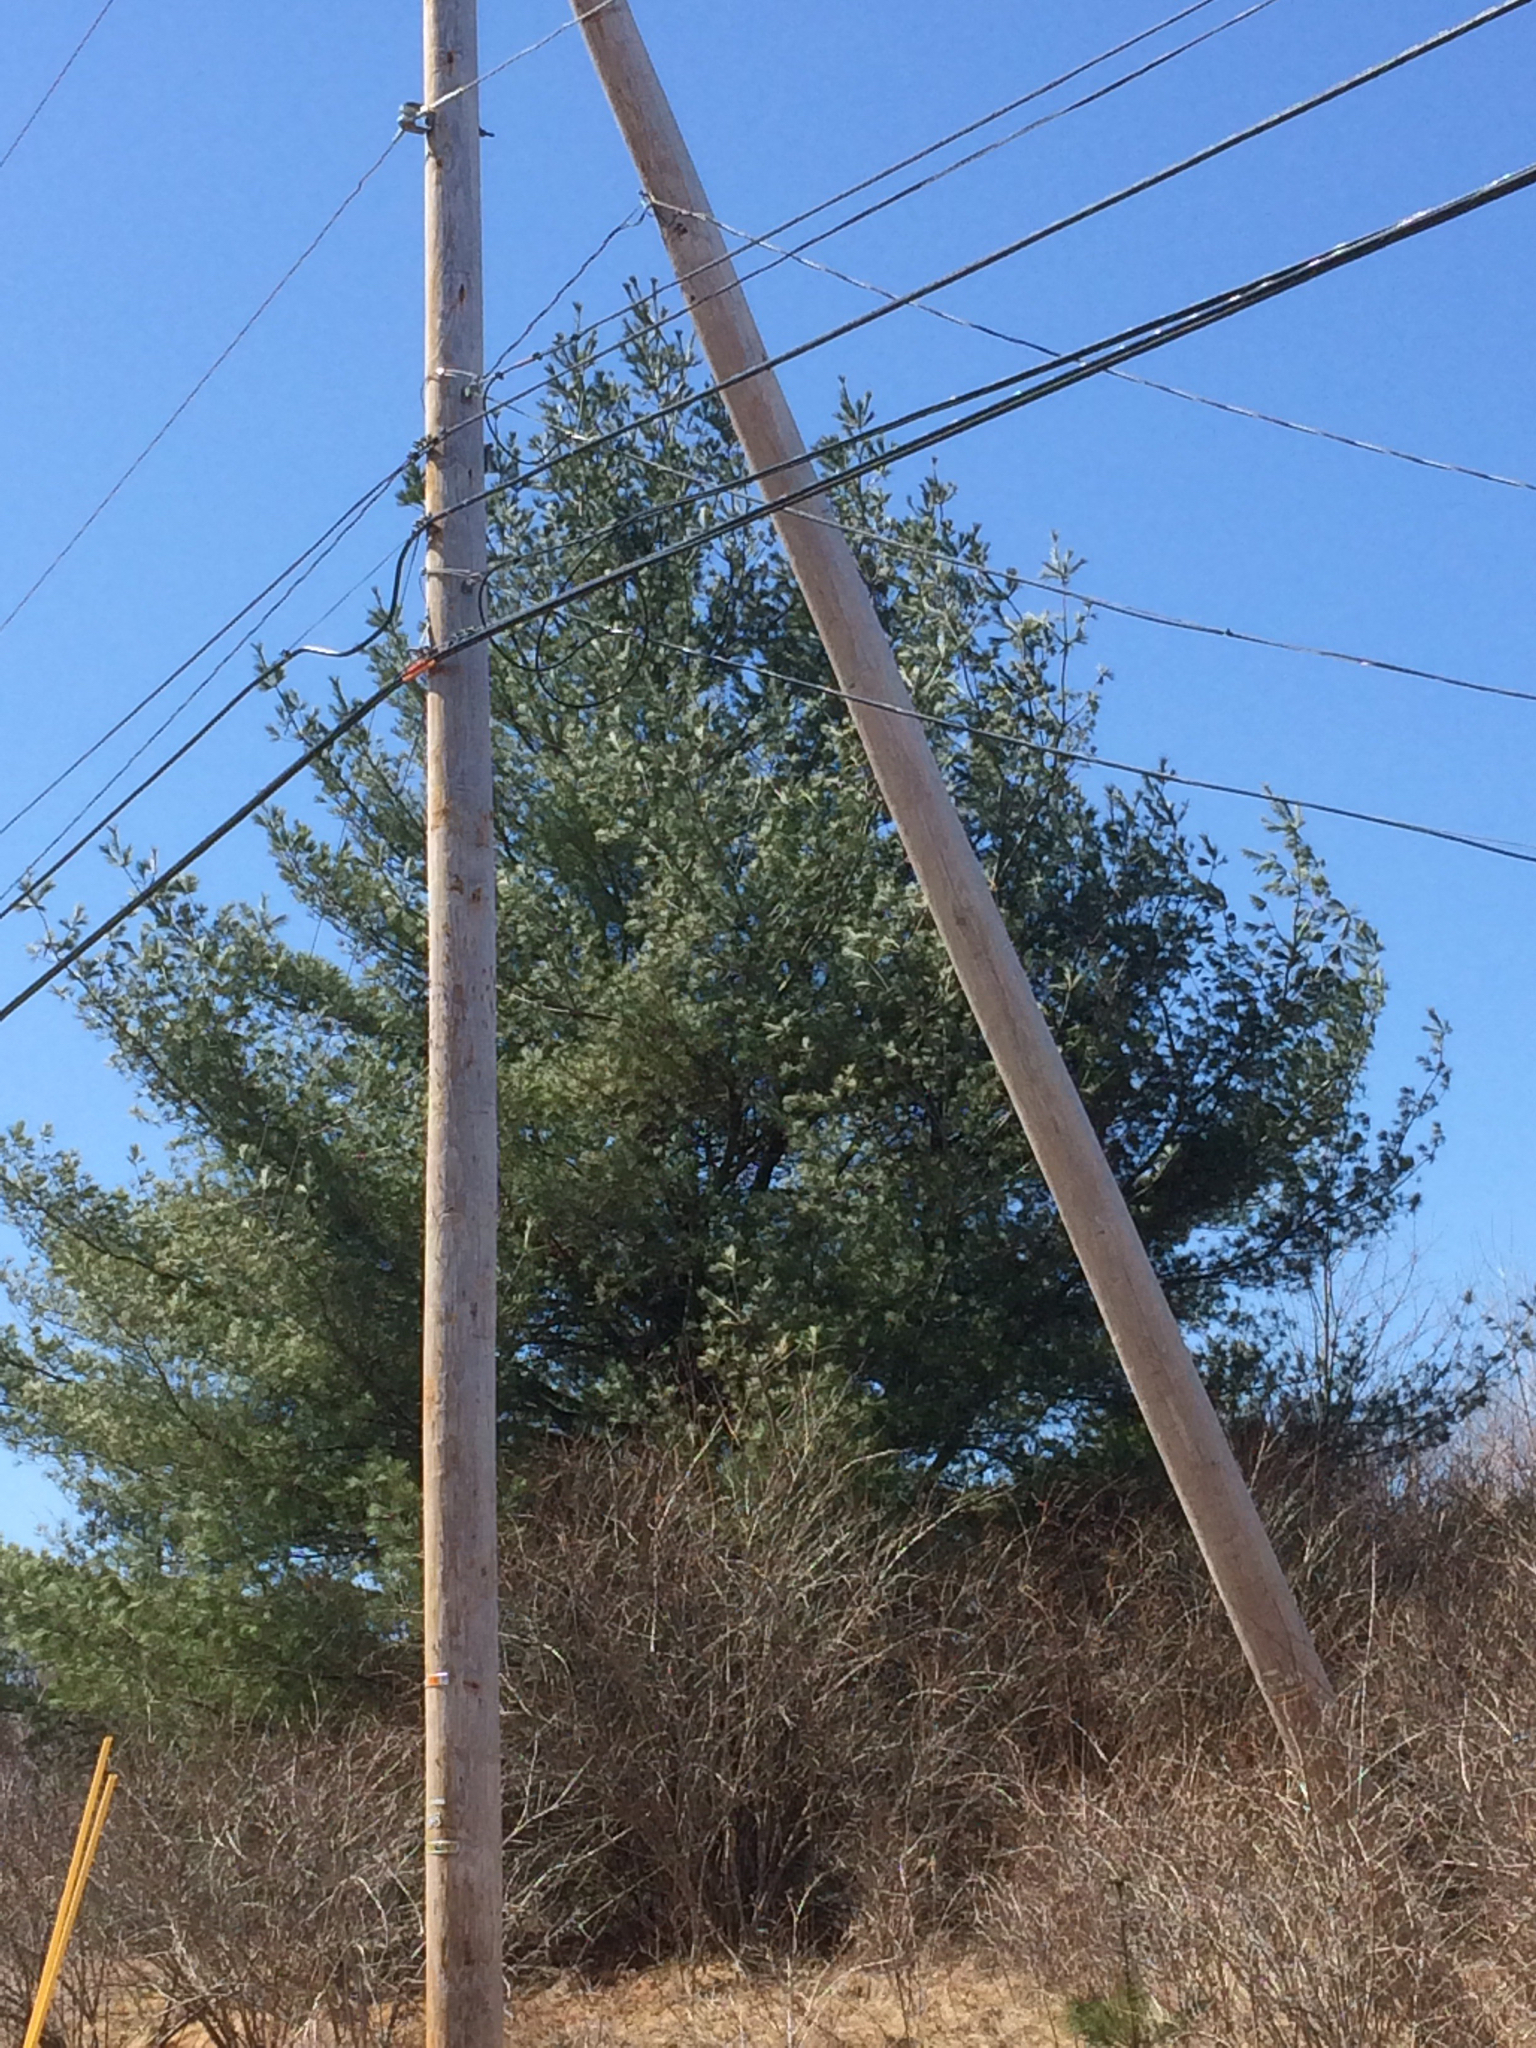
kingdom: Plantae
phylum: Tracheophyta
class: Pinopsida
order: Pinales
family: Pinaceae
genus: Pinus
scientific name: Pinus strobus
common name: Weymouth pine
